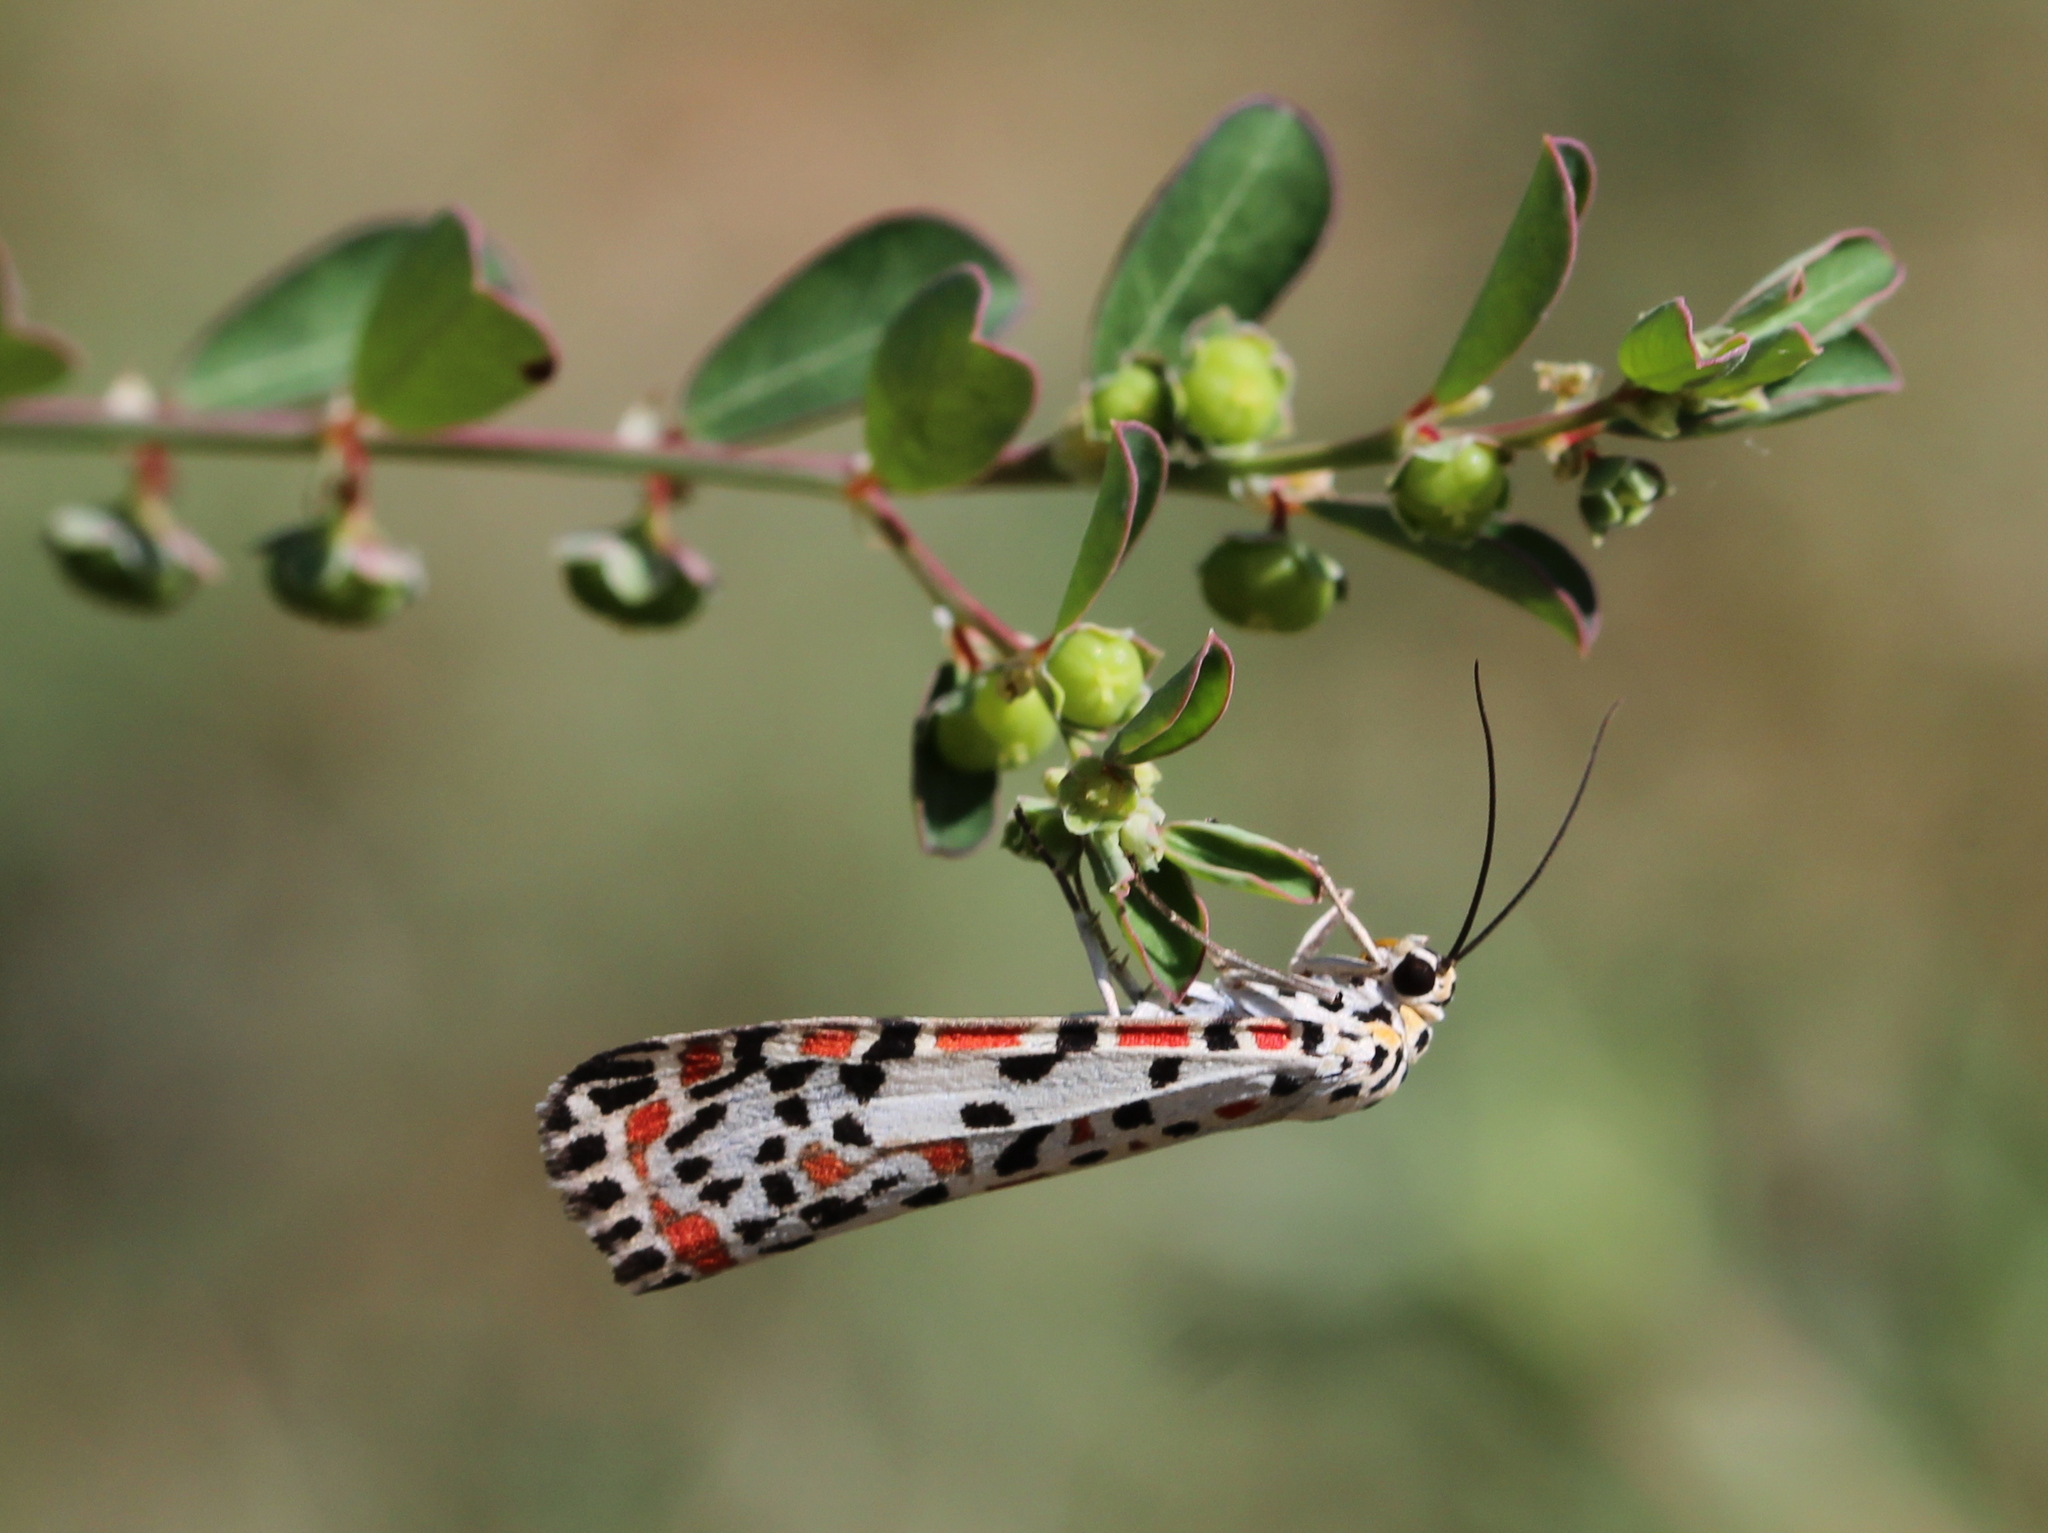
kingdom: Animalia
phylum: Arthropoda
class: Insecta
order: Lepidoptera
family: Erebidae
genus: Utetheisa
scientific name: Utetheisa pulchelloides
